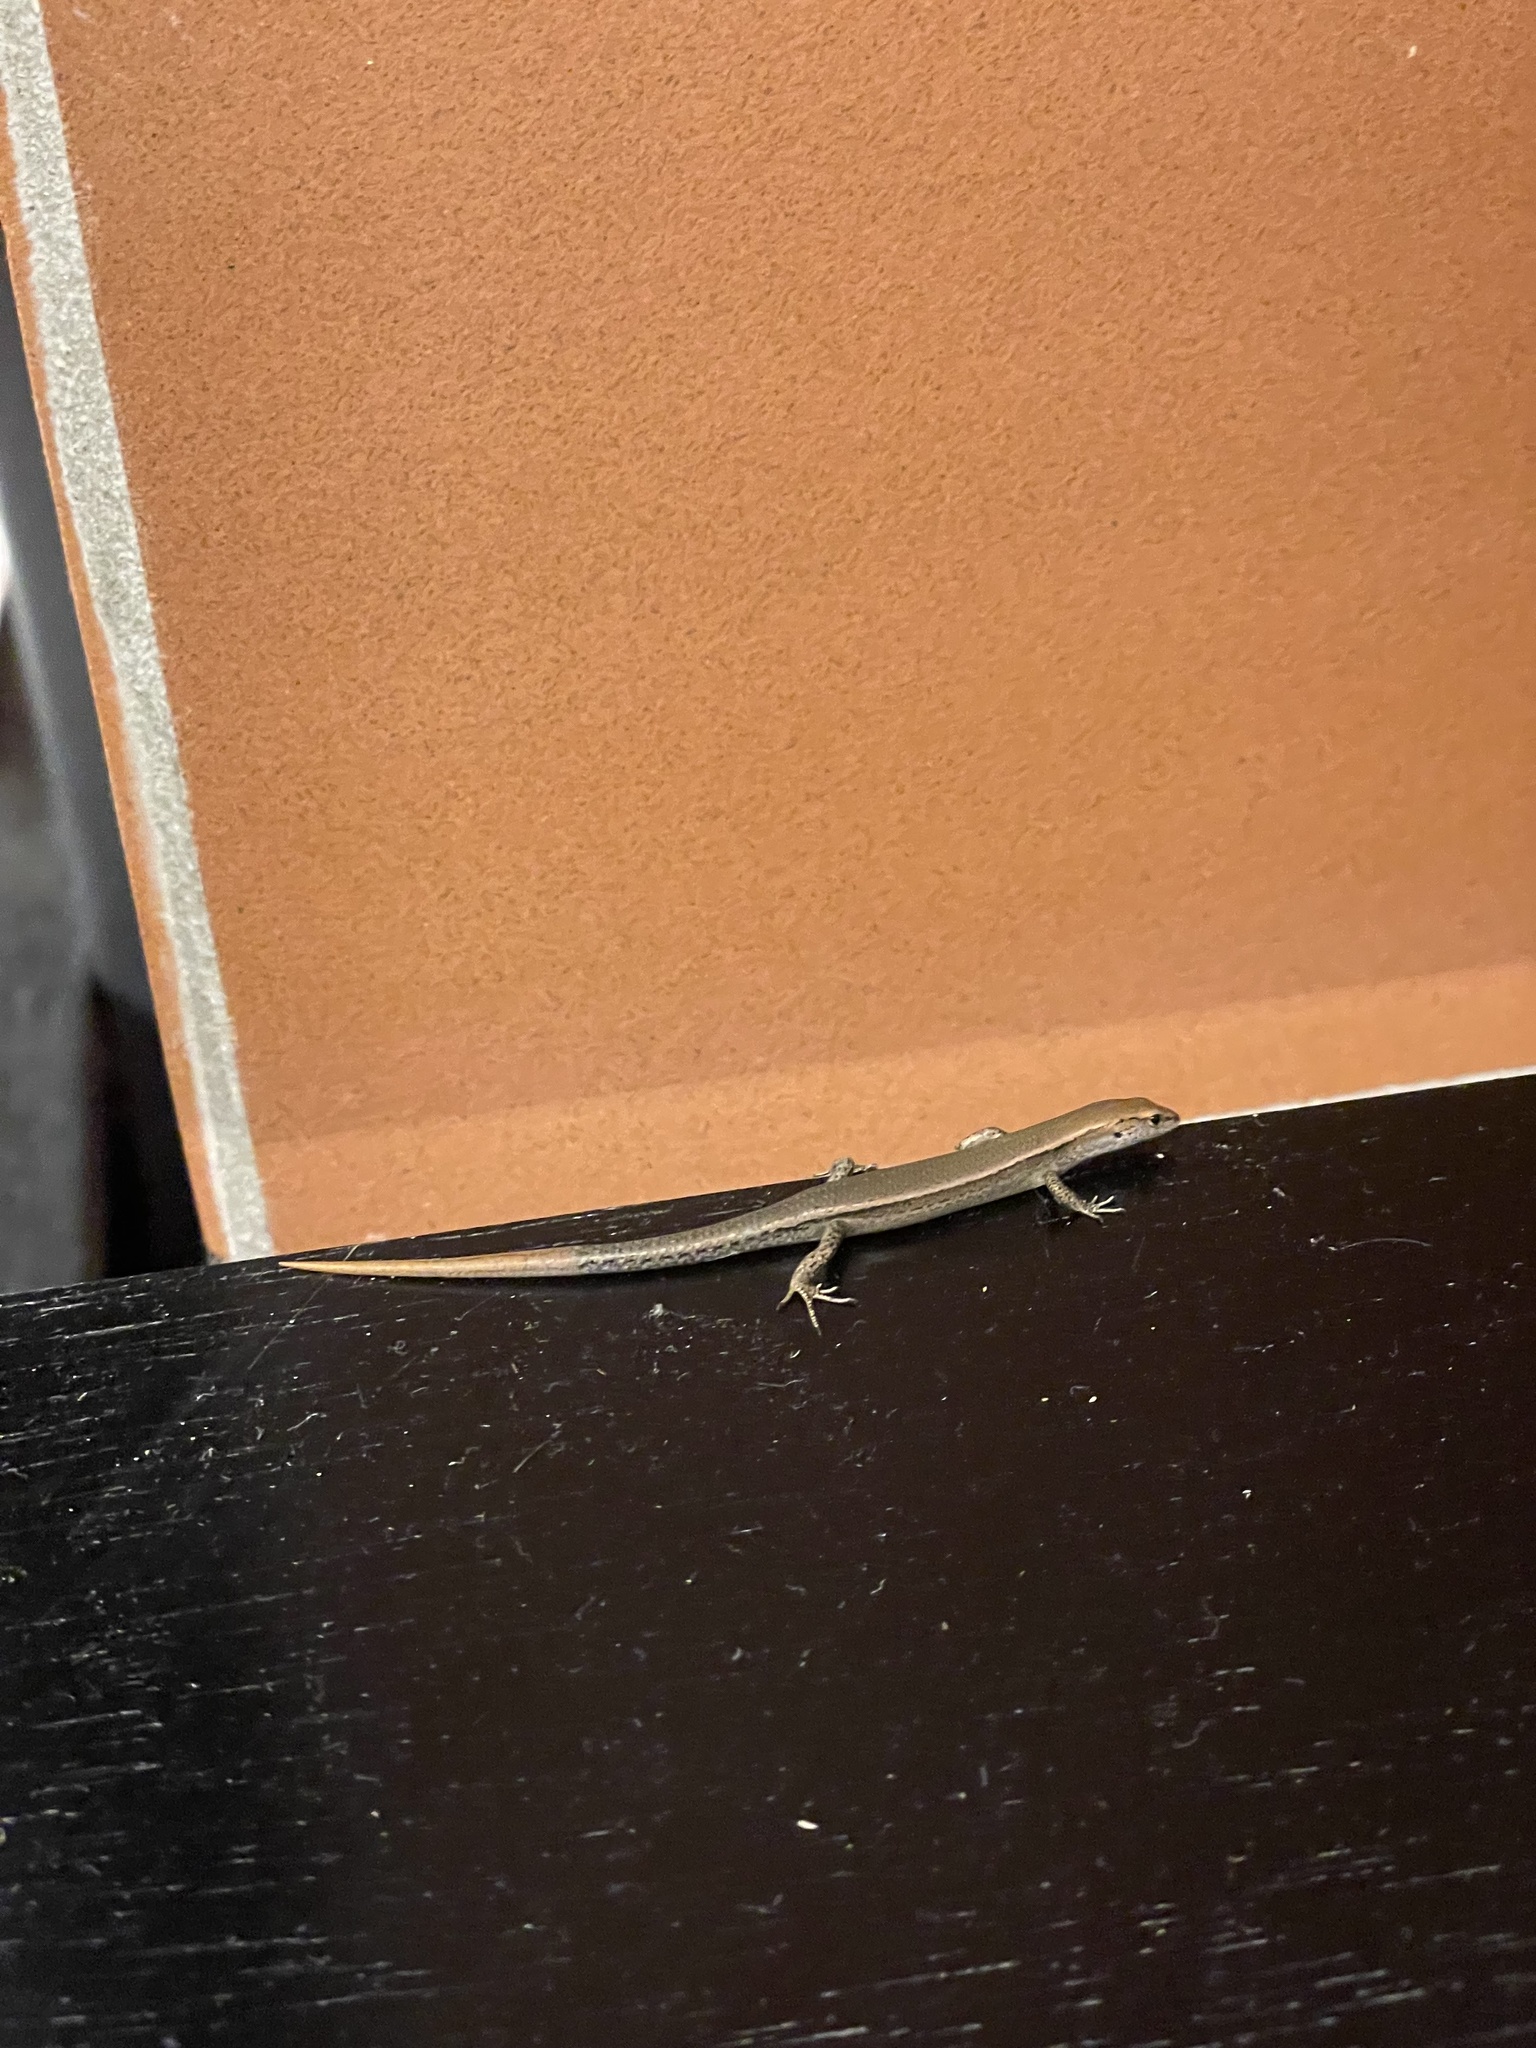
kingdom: Animalia
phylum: Chordata
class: Squamata
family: Scincidae
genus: Lampropholis
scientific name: Lampropholis delicata
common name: Plague skink
